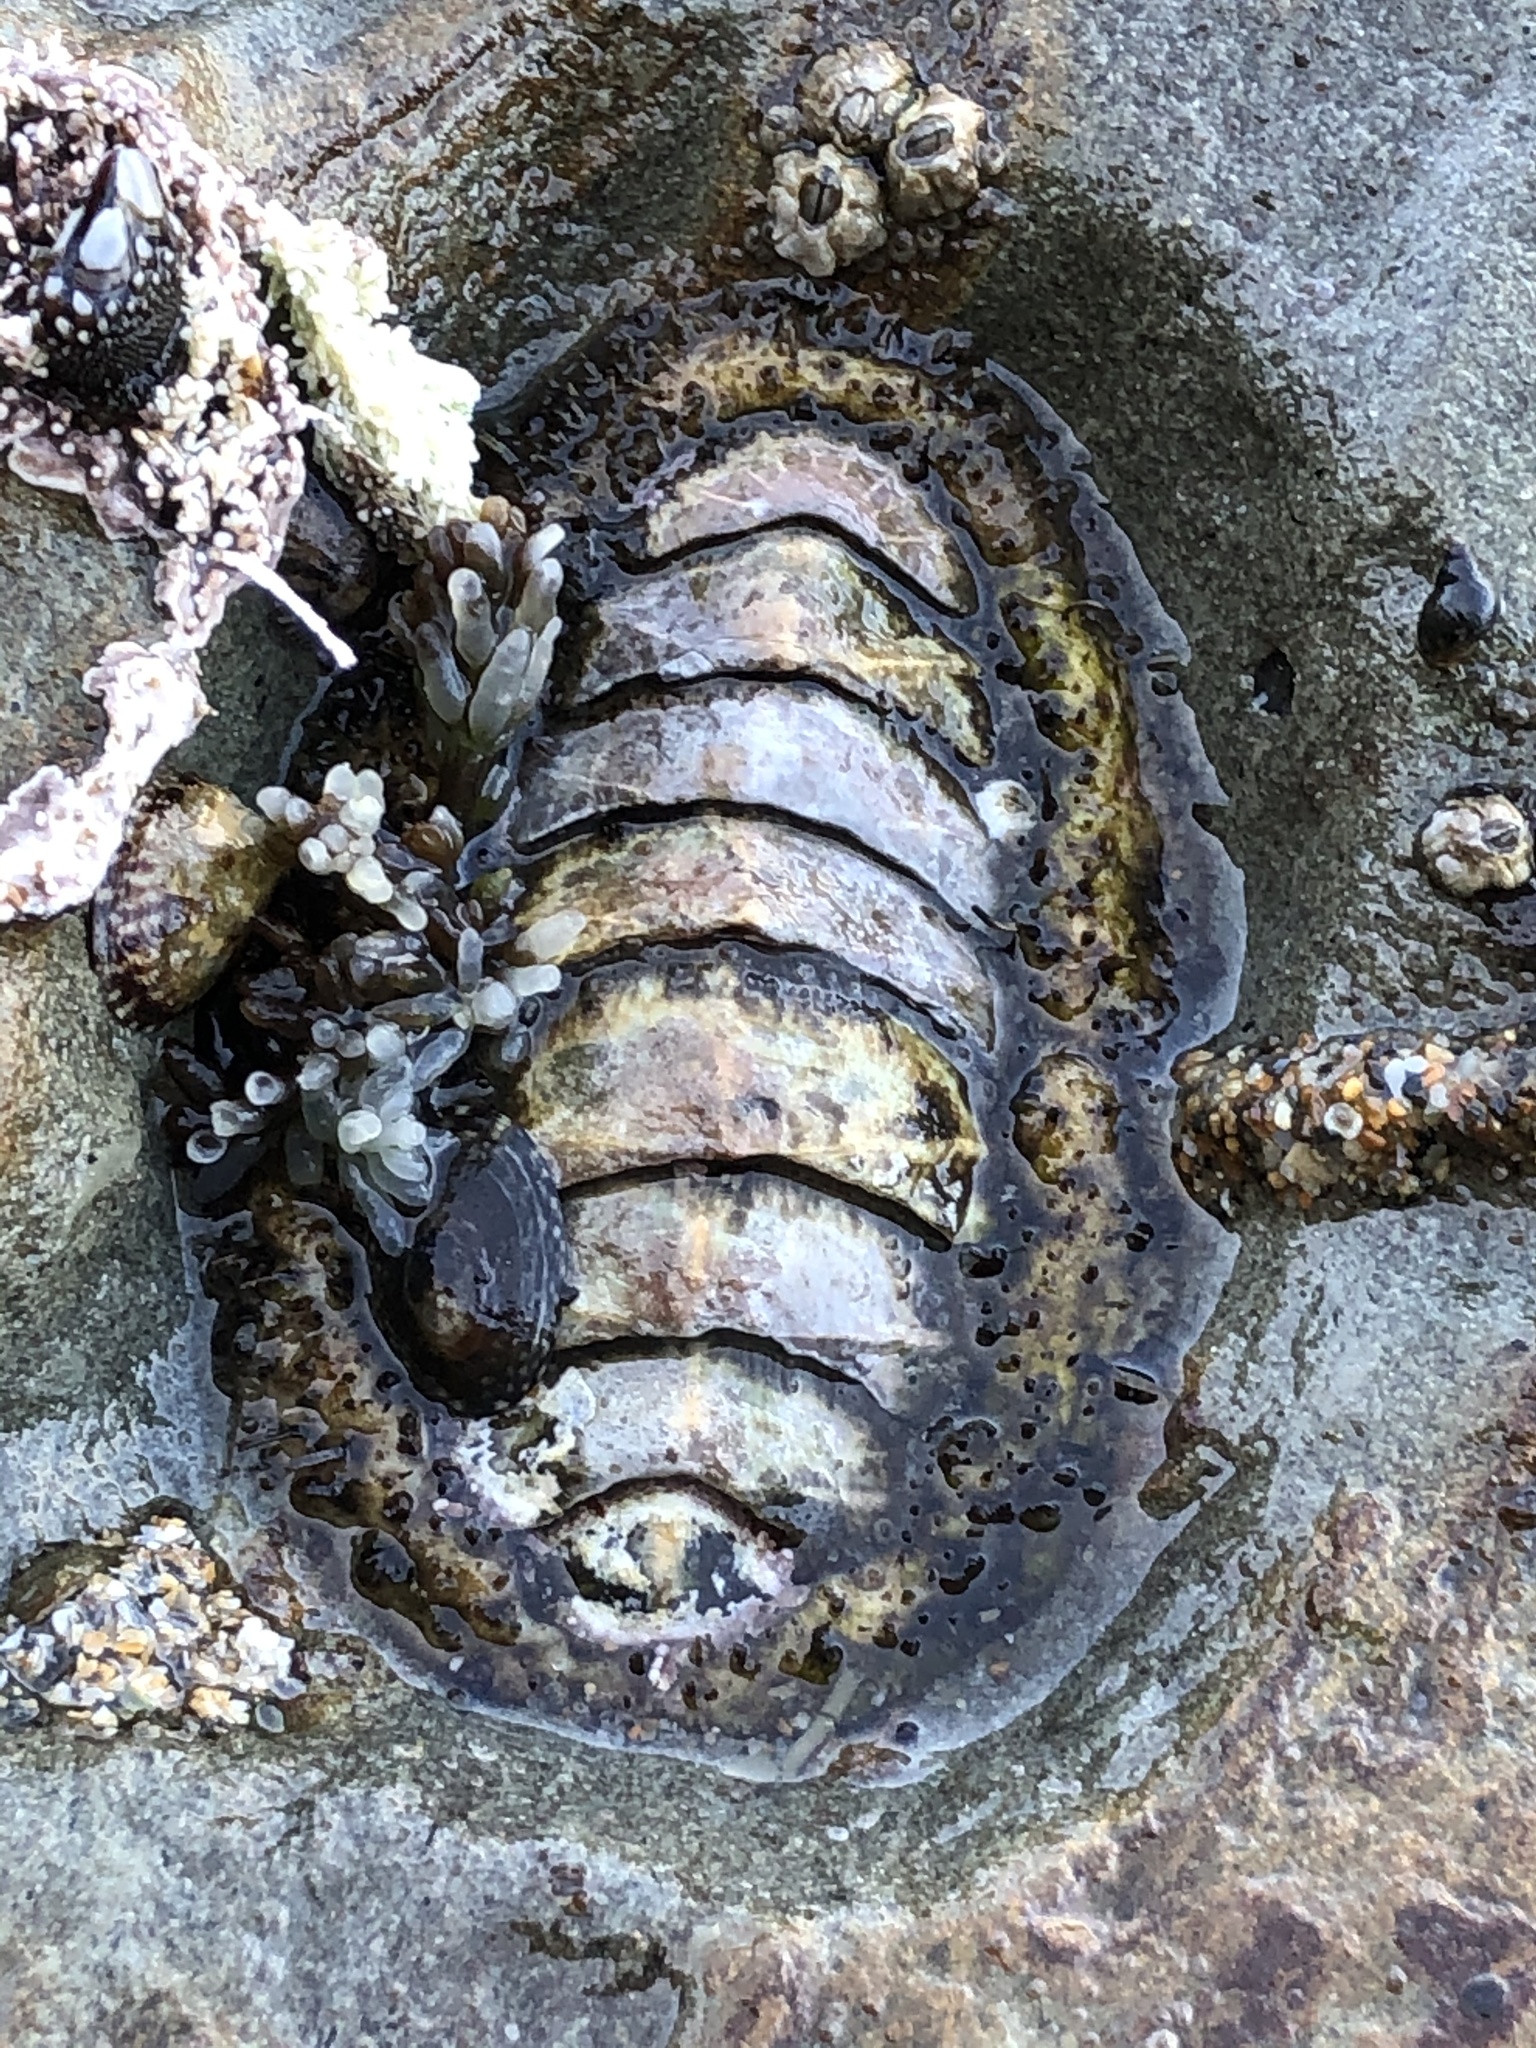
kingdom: Animalia
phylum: Mollusca
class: Polyplacophora
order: Chitonida
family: Mopaliidae
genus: Mopalia
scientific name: Mopalia muscosa
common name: Mossy chiton
